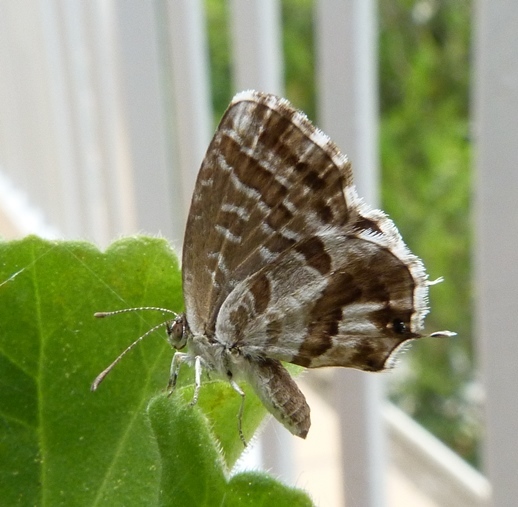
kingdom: Animalia
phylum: Arthropoda
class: Insecta
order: Lepidoptera
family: Lycaenidae
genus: Cacyreus
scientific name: Cacyreus marshalli
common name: Geranium bronze
